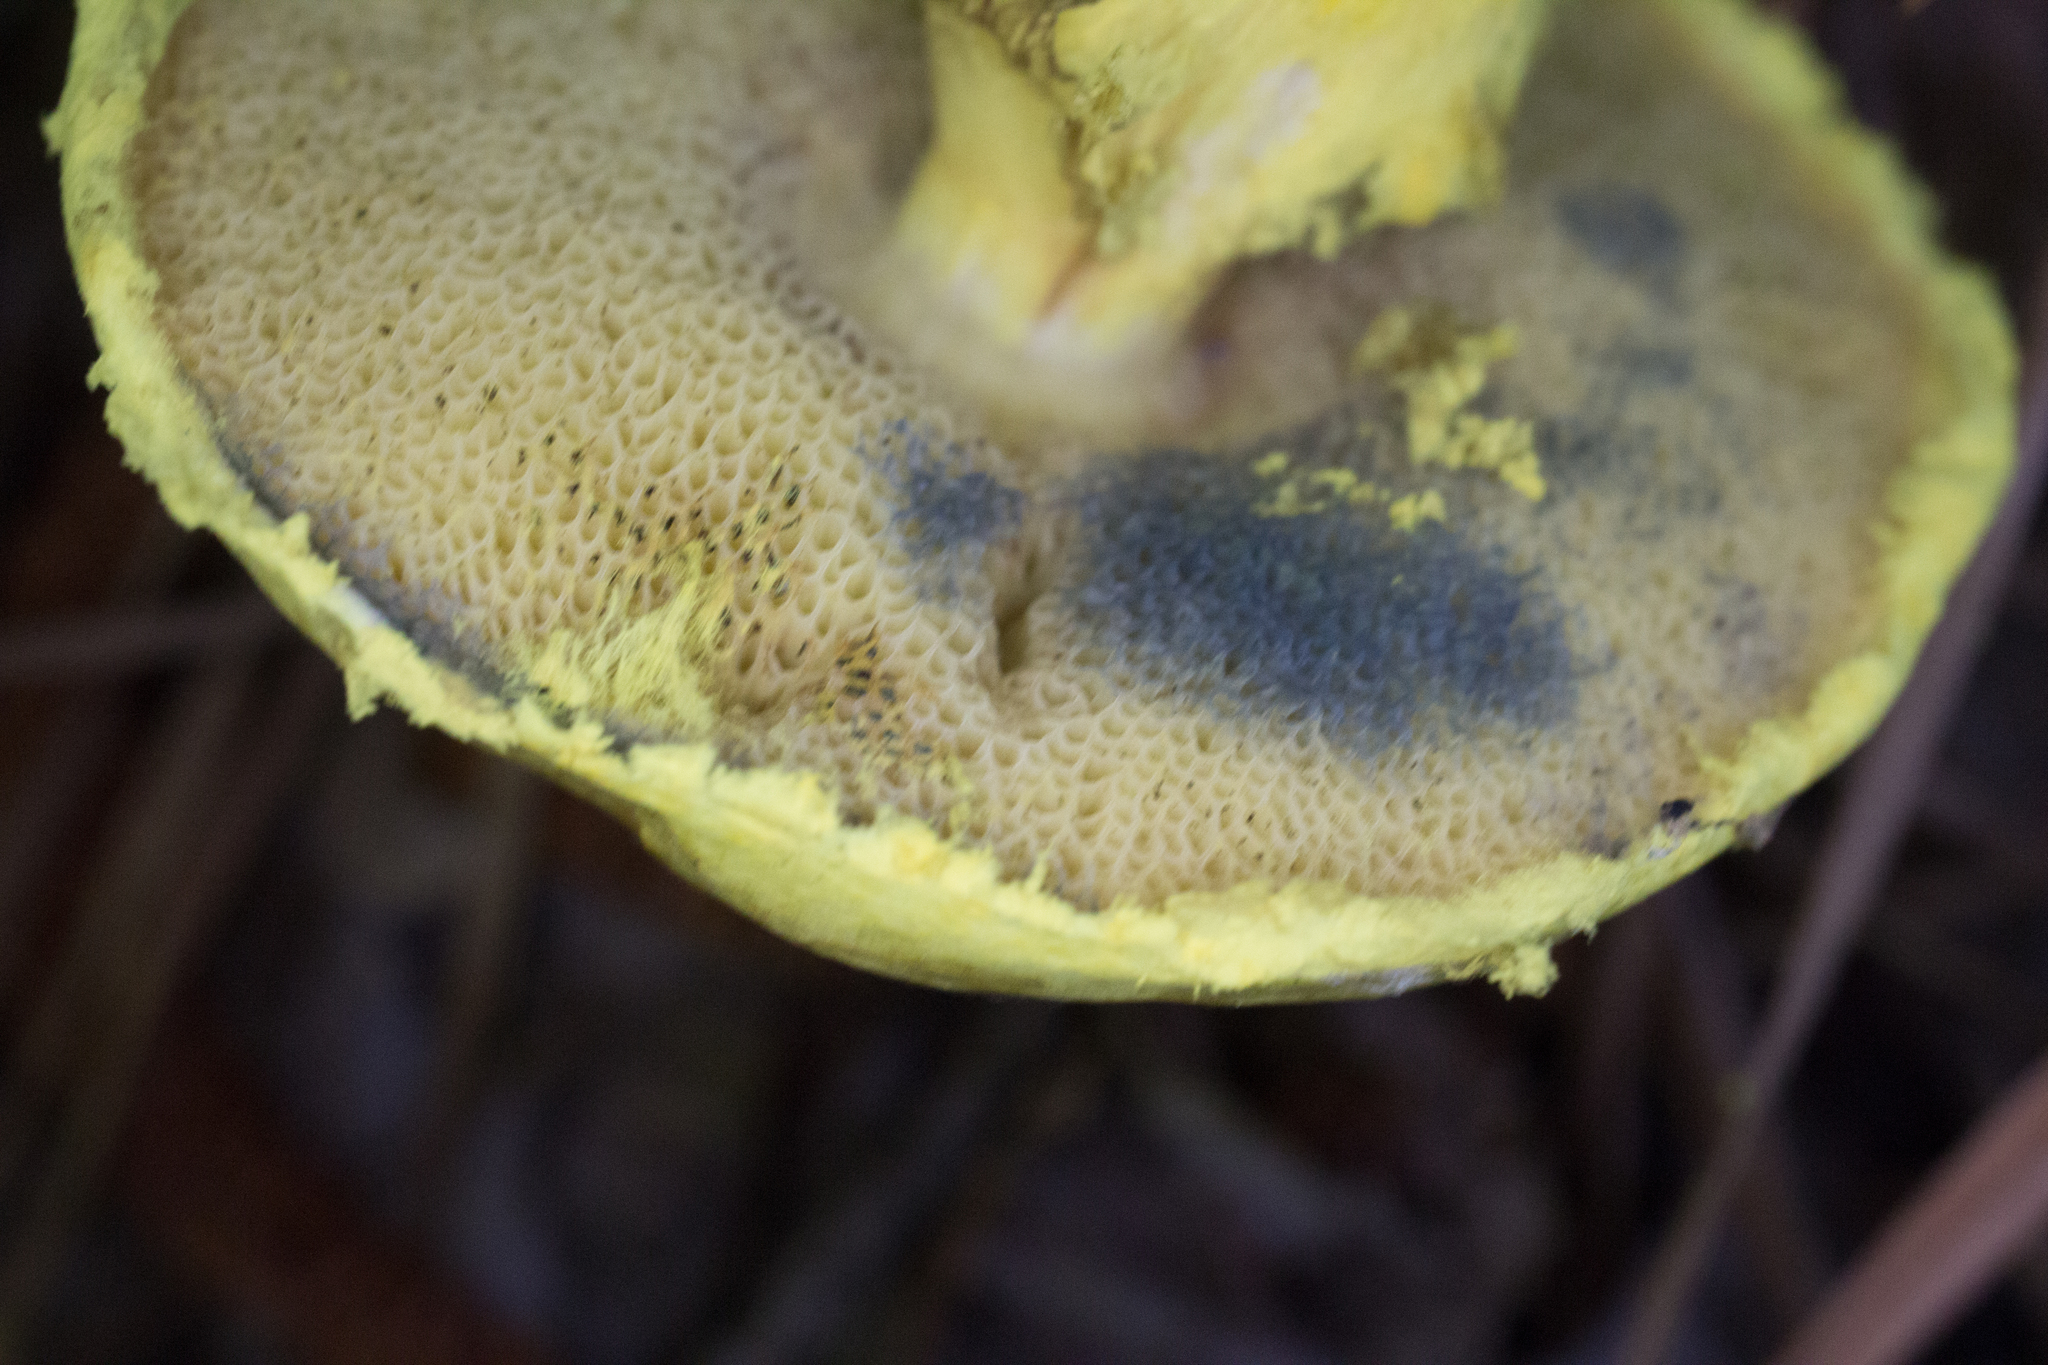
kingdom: Fungi
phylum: Basidiomycota
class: Agaricomycetes
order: Boletales
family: Boletaceae
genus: Pulveroboletus
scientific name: Pulveroboletus ravenelii
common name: Powdery sulfur bolete
